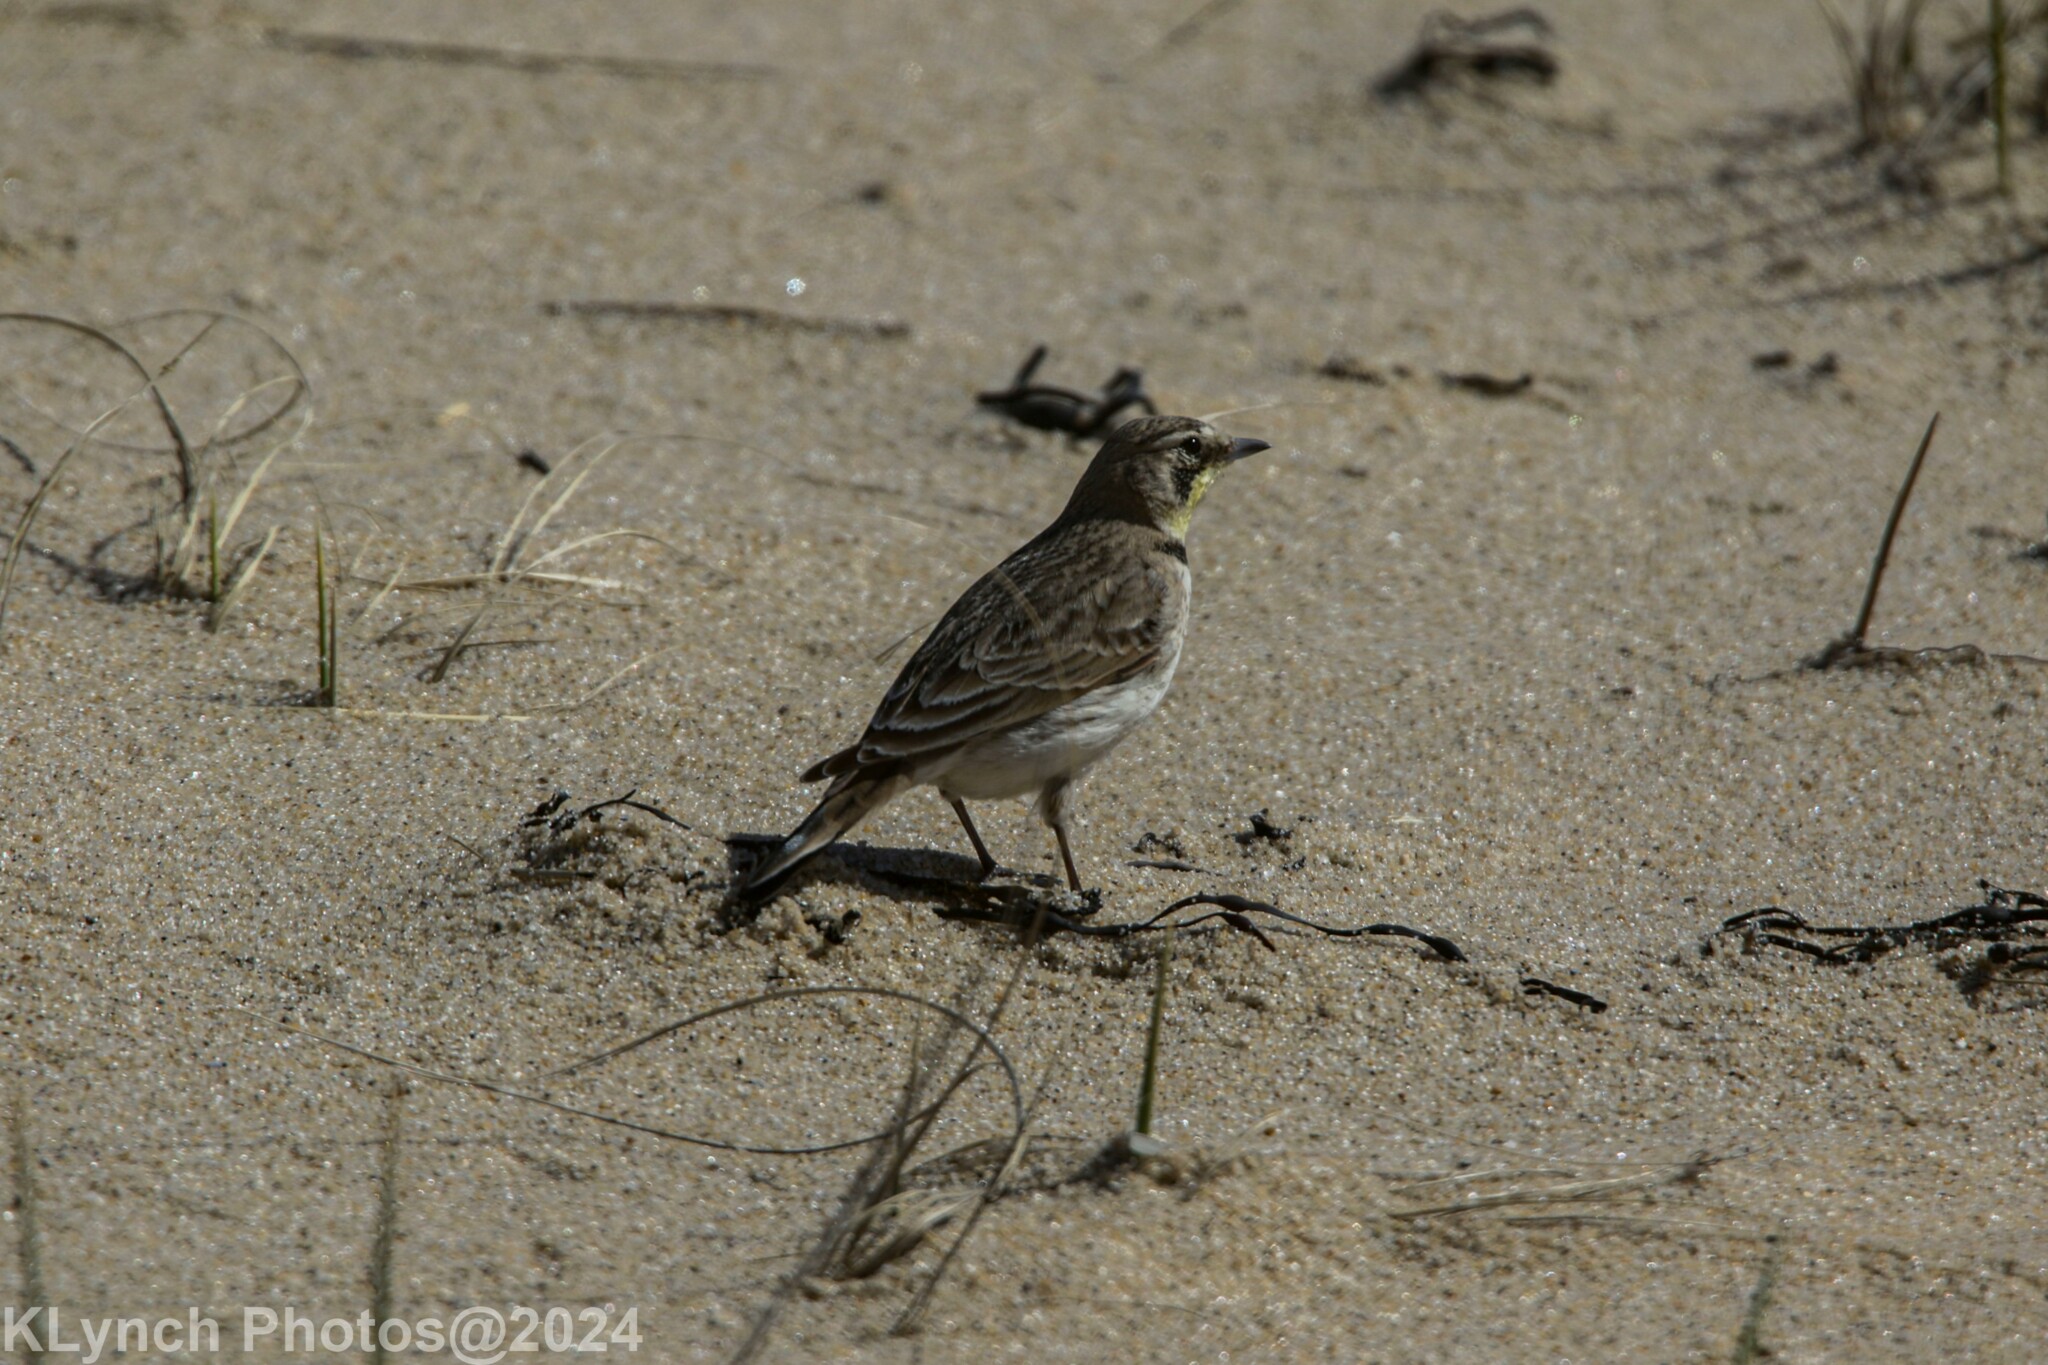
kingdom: Animalia
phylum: Chordata
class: Aves
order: Passeriformes
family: Alaudidae
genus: Eremophila
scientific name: Eremophila alpestris
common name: Horned lark
